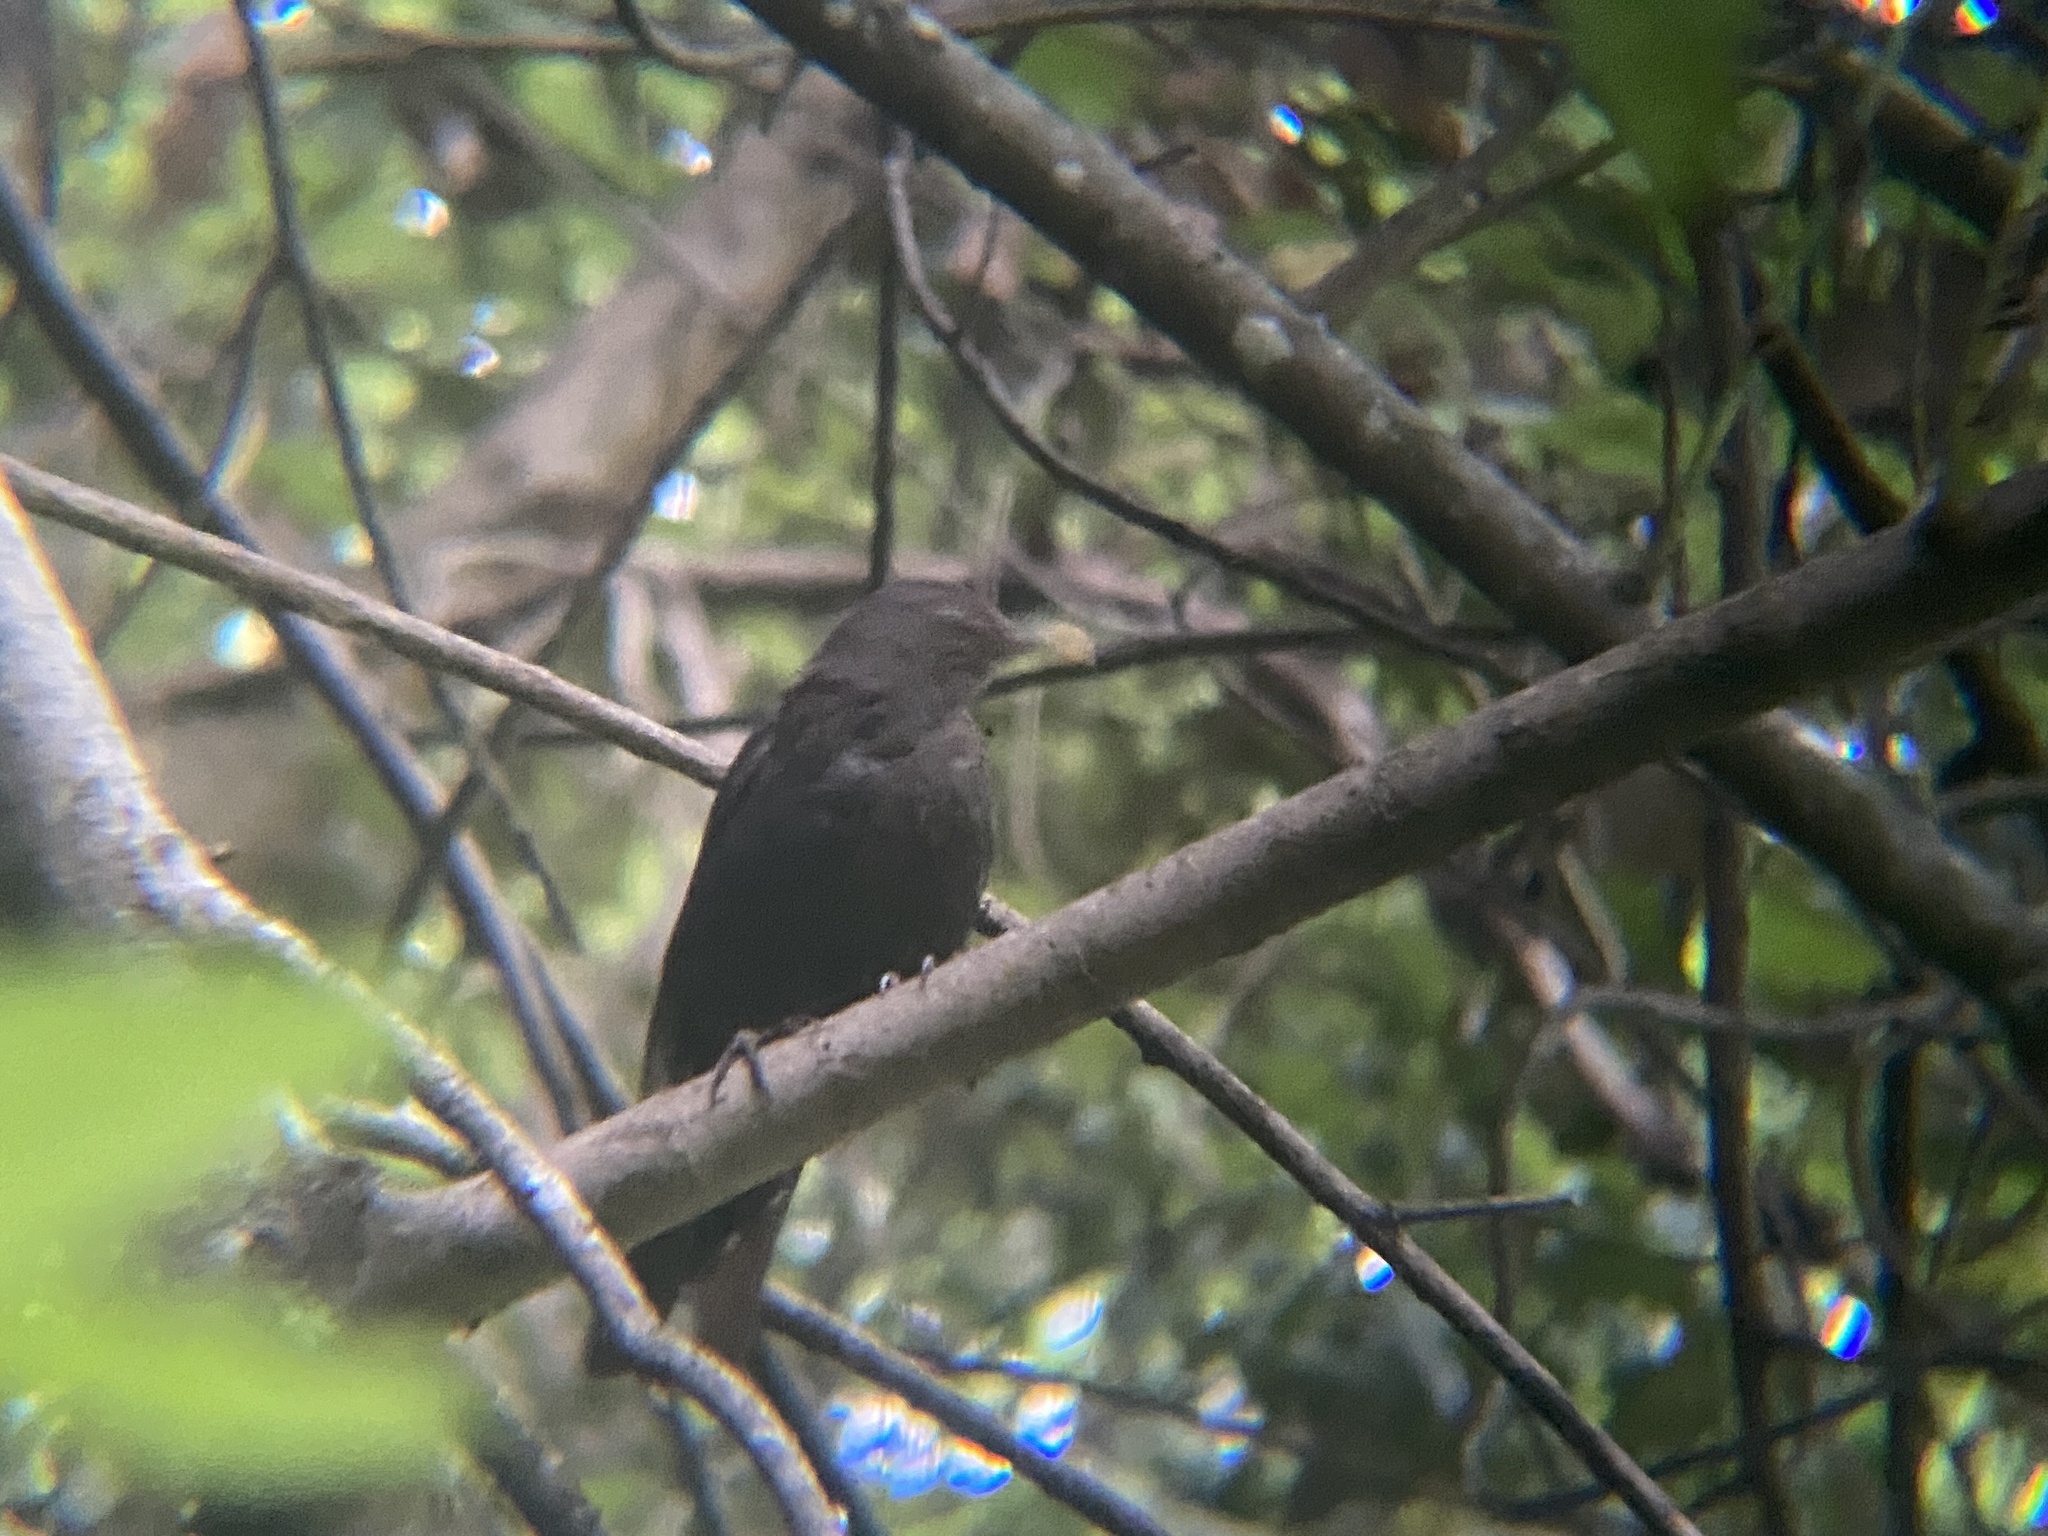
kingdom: Animalia
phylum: Chordata
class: Aves
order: Passeriformes
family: Turdidae
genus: Turdus
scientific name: Turdus merula
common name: Common blackbird
